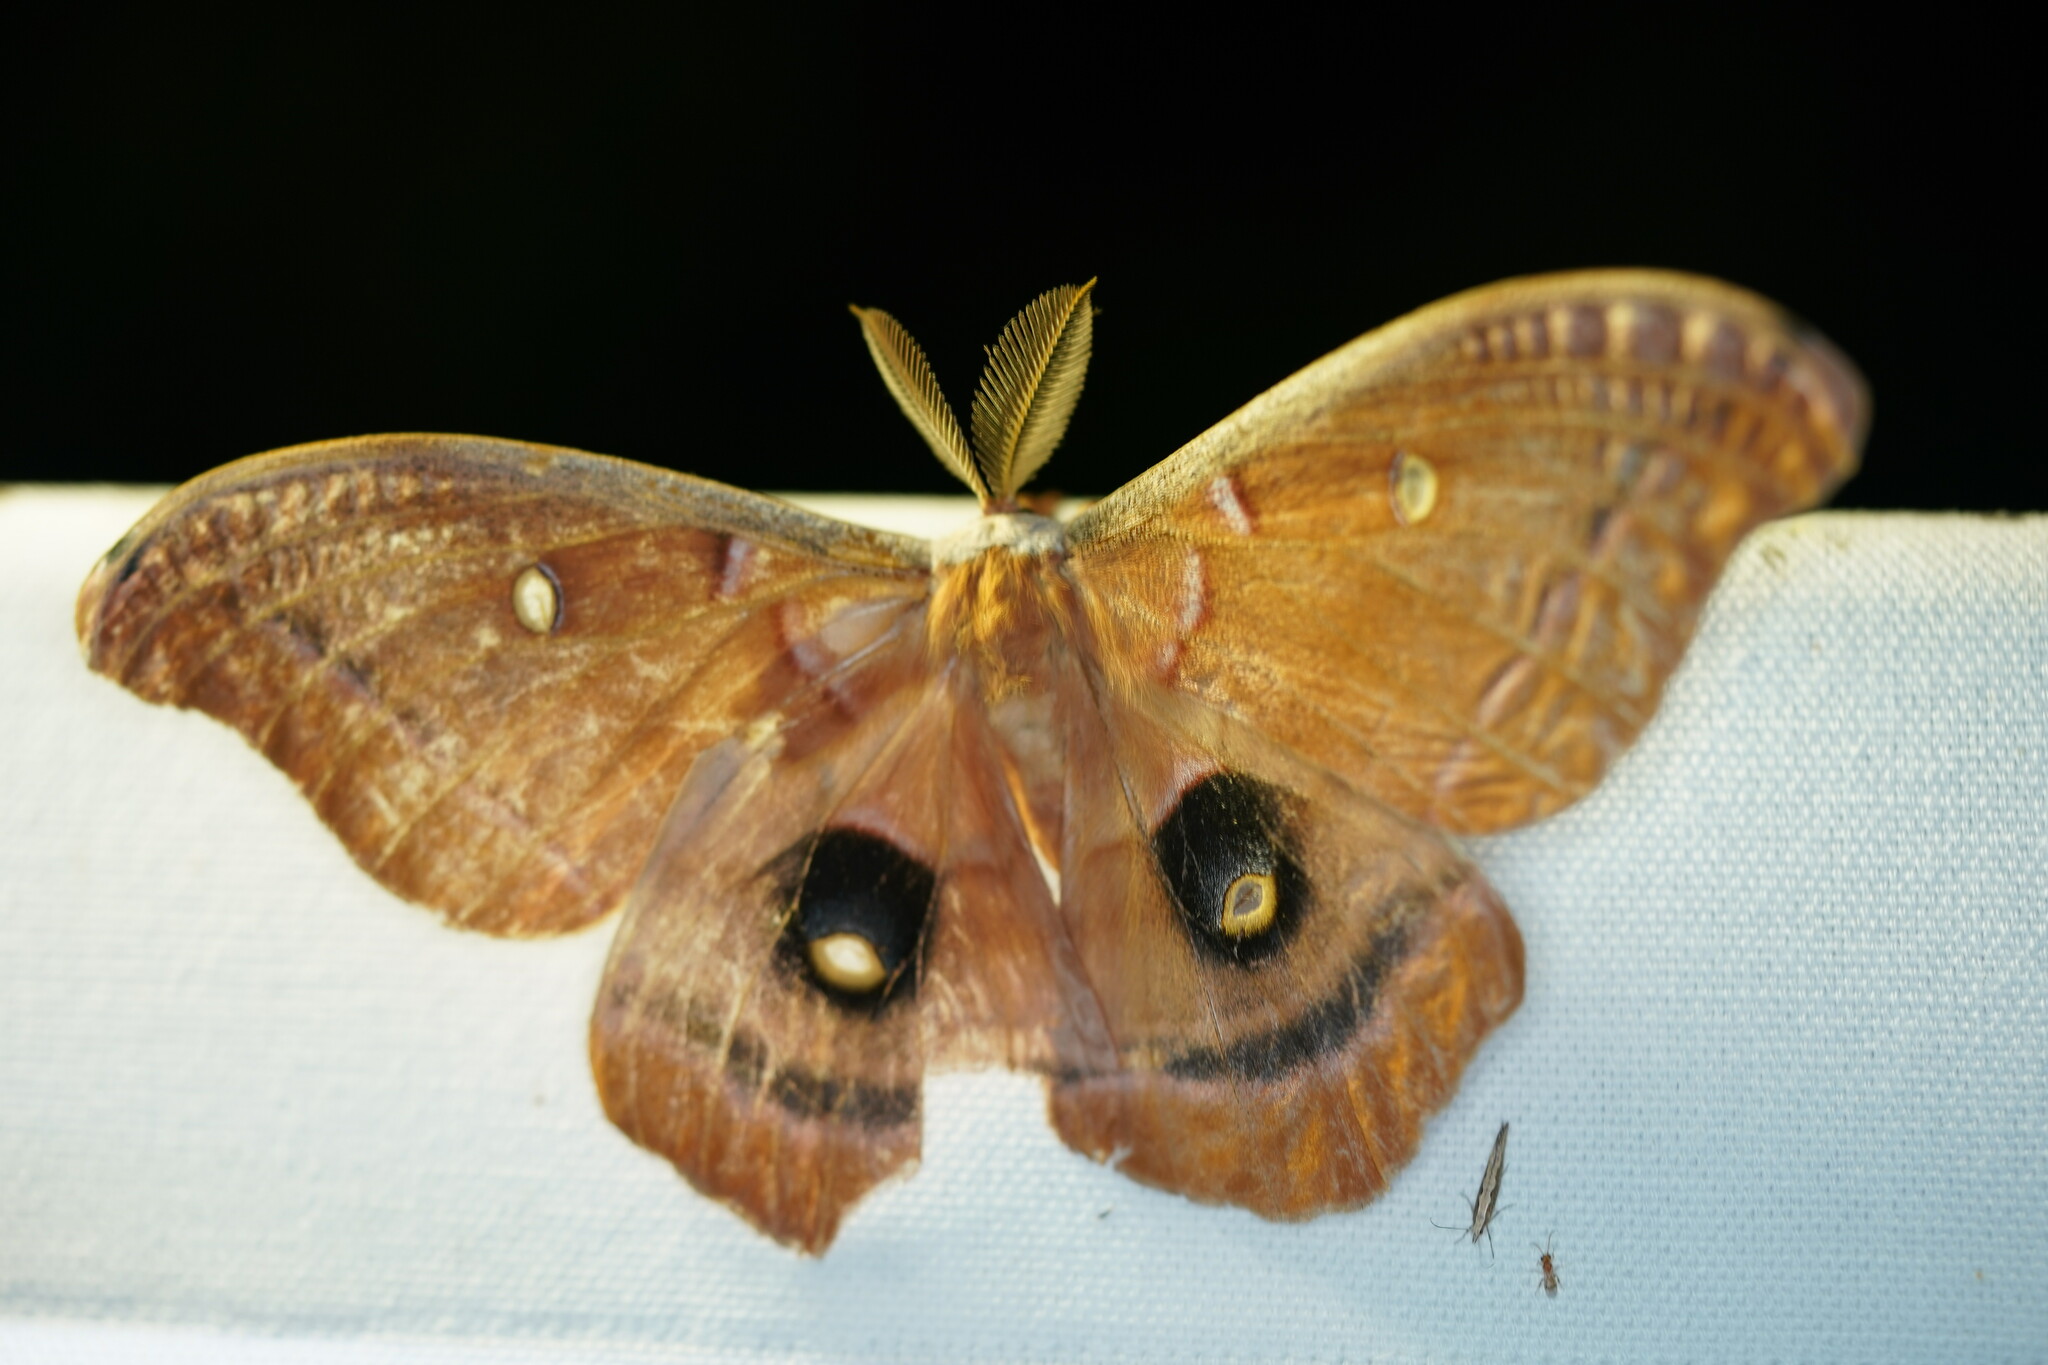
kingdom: Animalia
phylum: Arthropoda
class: Insecta
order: Lepidoptera
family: Saturniidae
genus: Antheraea
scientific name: Antheraea polyphemus
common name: Polyphemus moth
